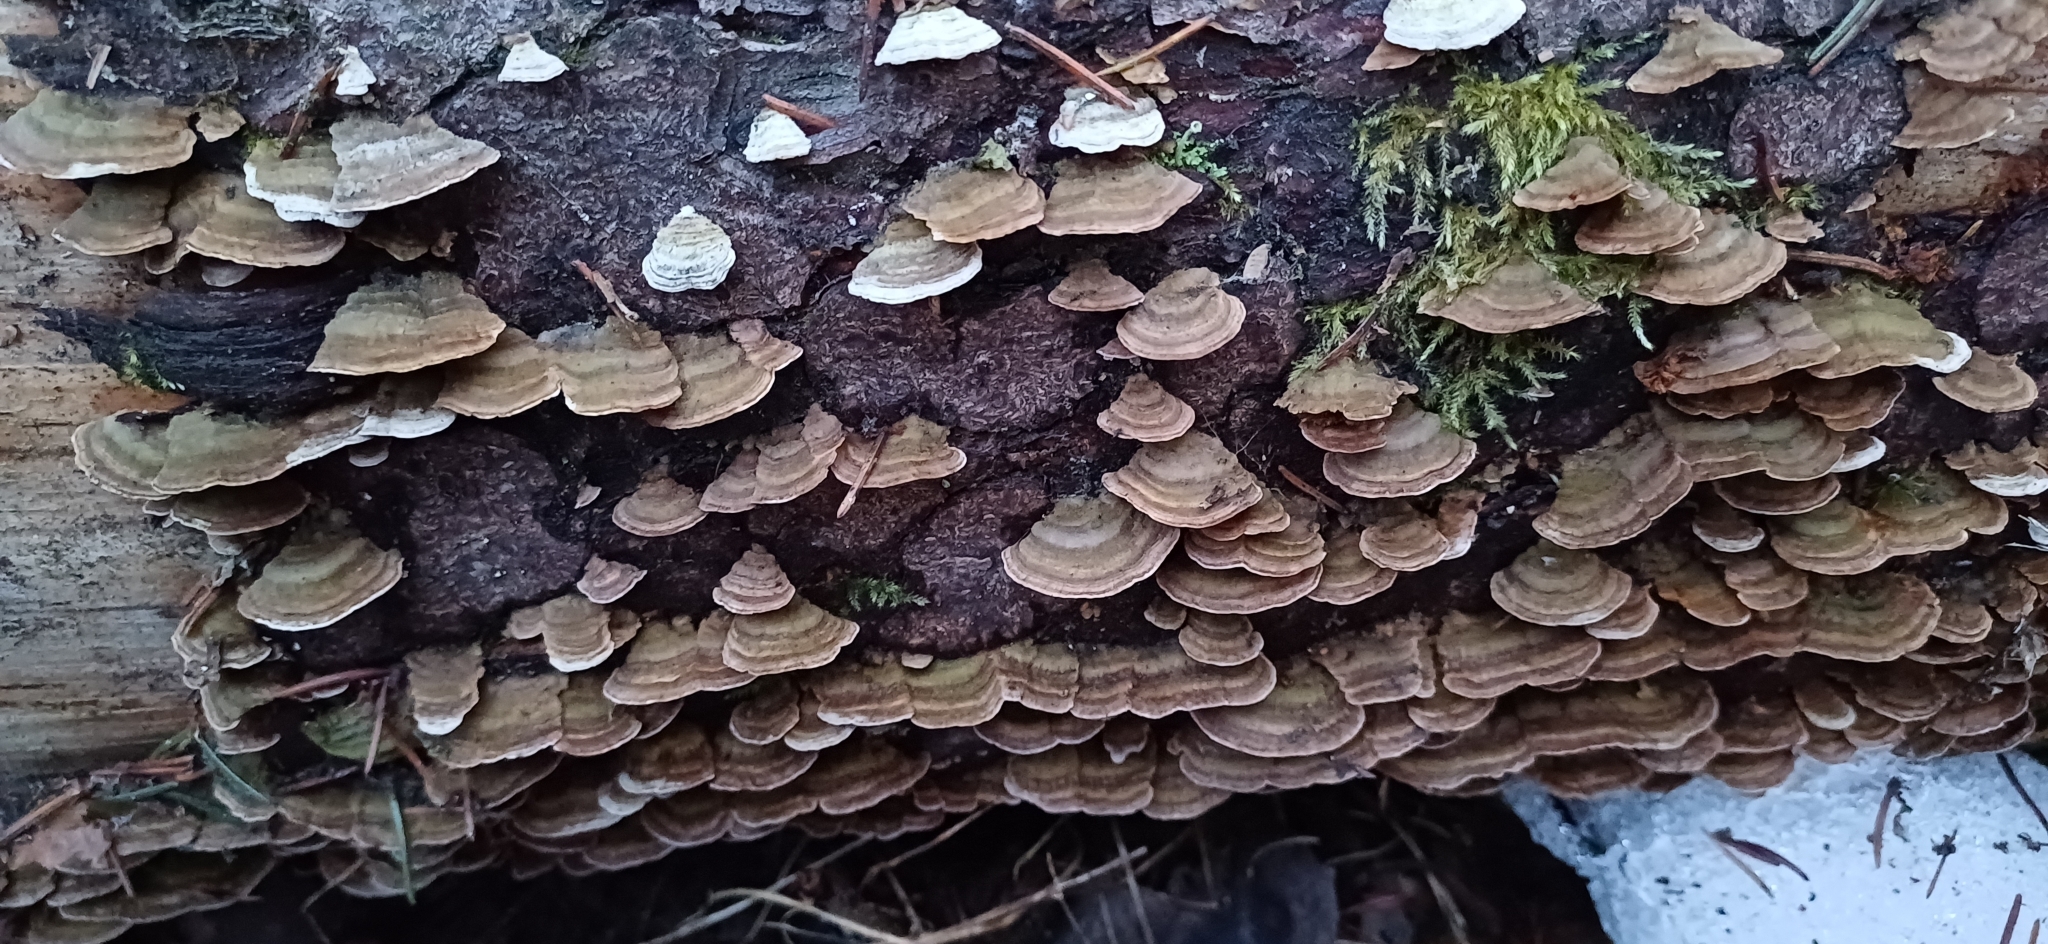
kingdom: Fungi
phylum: Basidiomycota
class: Agaricomycetes
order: Hymenochaetales
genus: Trichaptum
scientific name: Trichaptum abietinum
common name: Purplepore bracket
